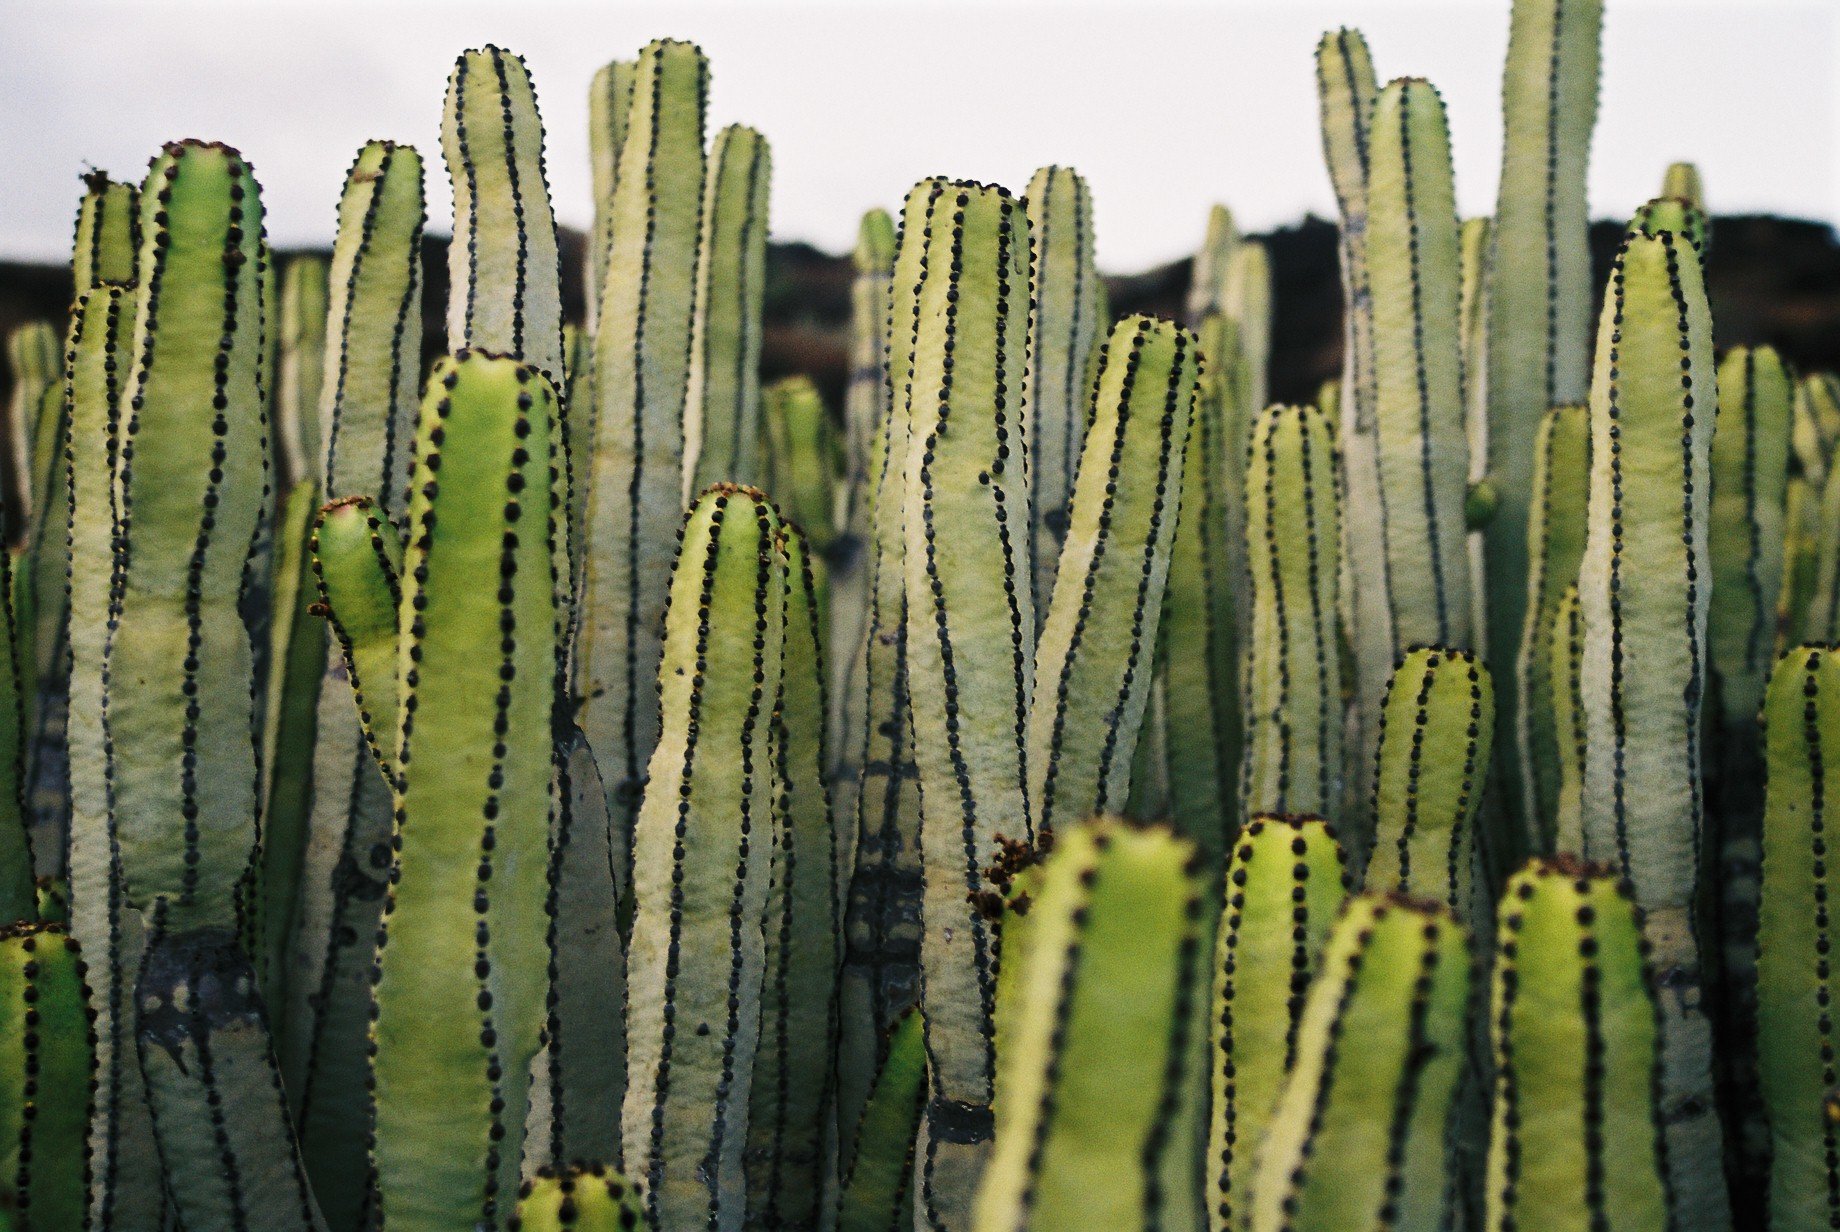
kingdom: Plantae
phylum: Tracheophyta
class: Magnoliopsida
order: Malpighiales
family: Euphorbiaceae
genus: Euphorbia
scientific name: Euphorbia canariensis
